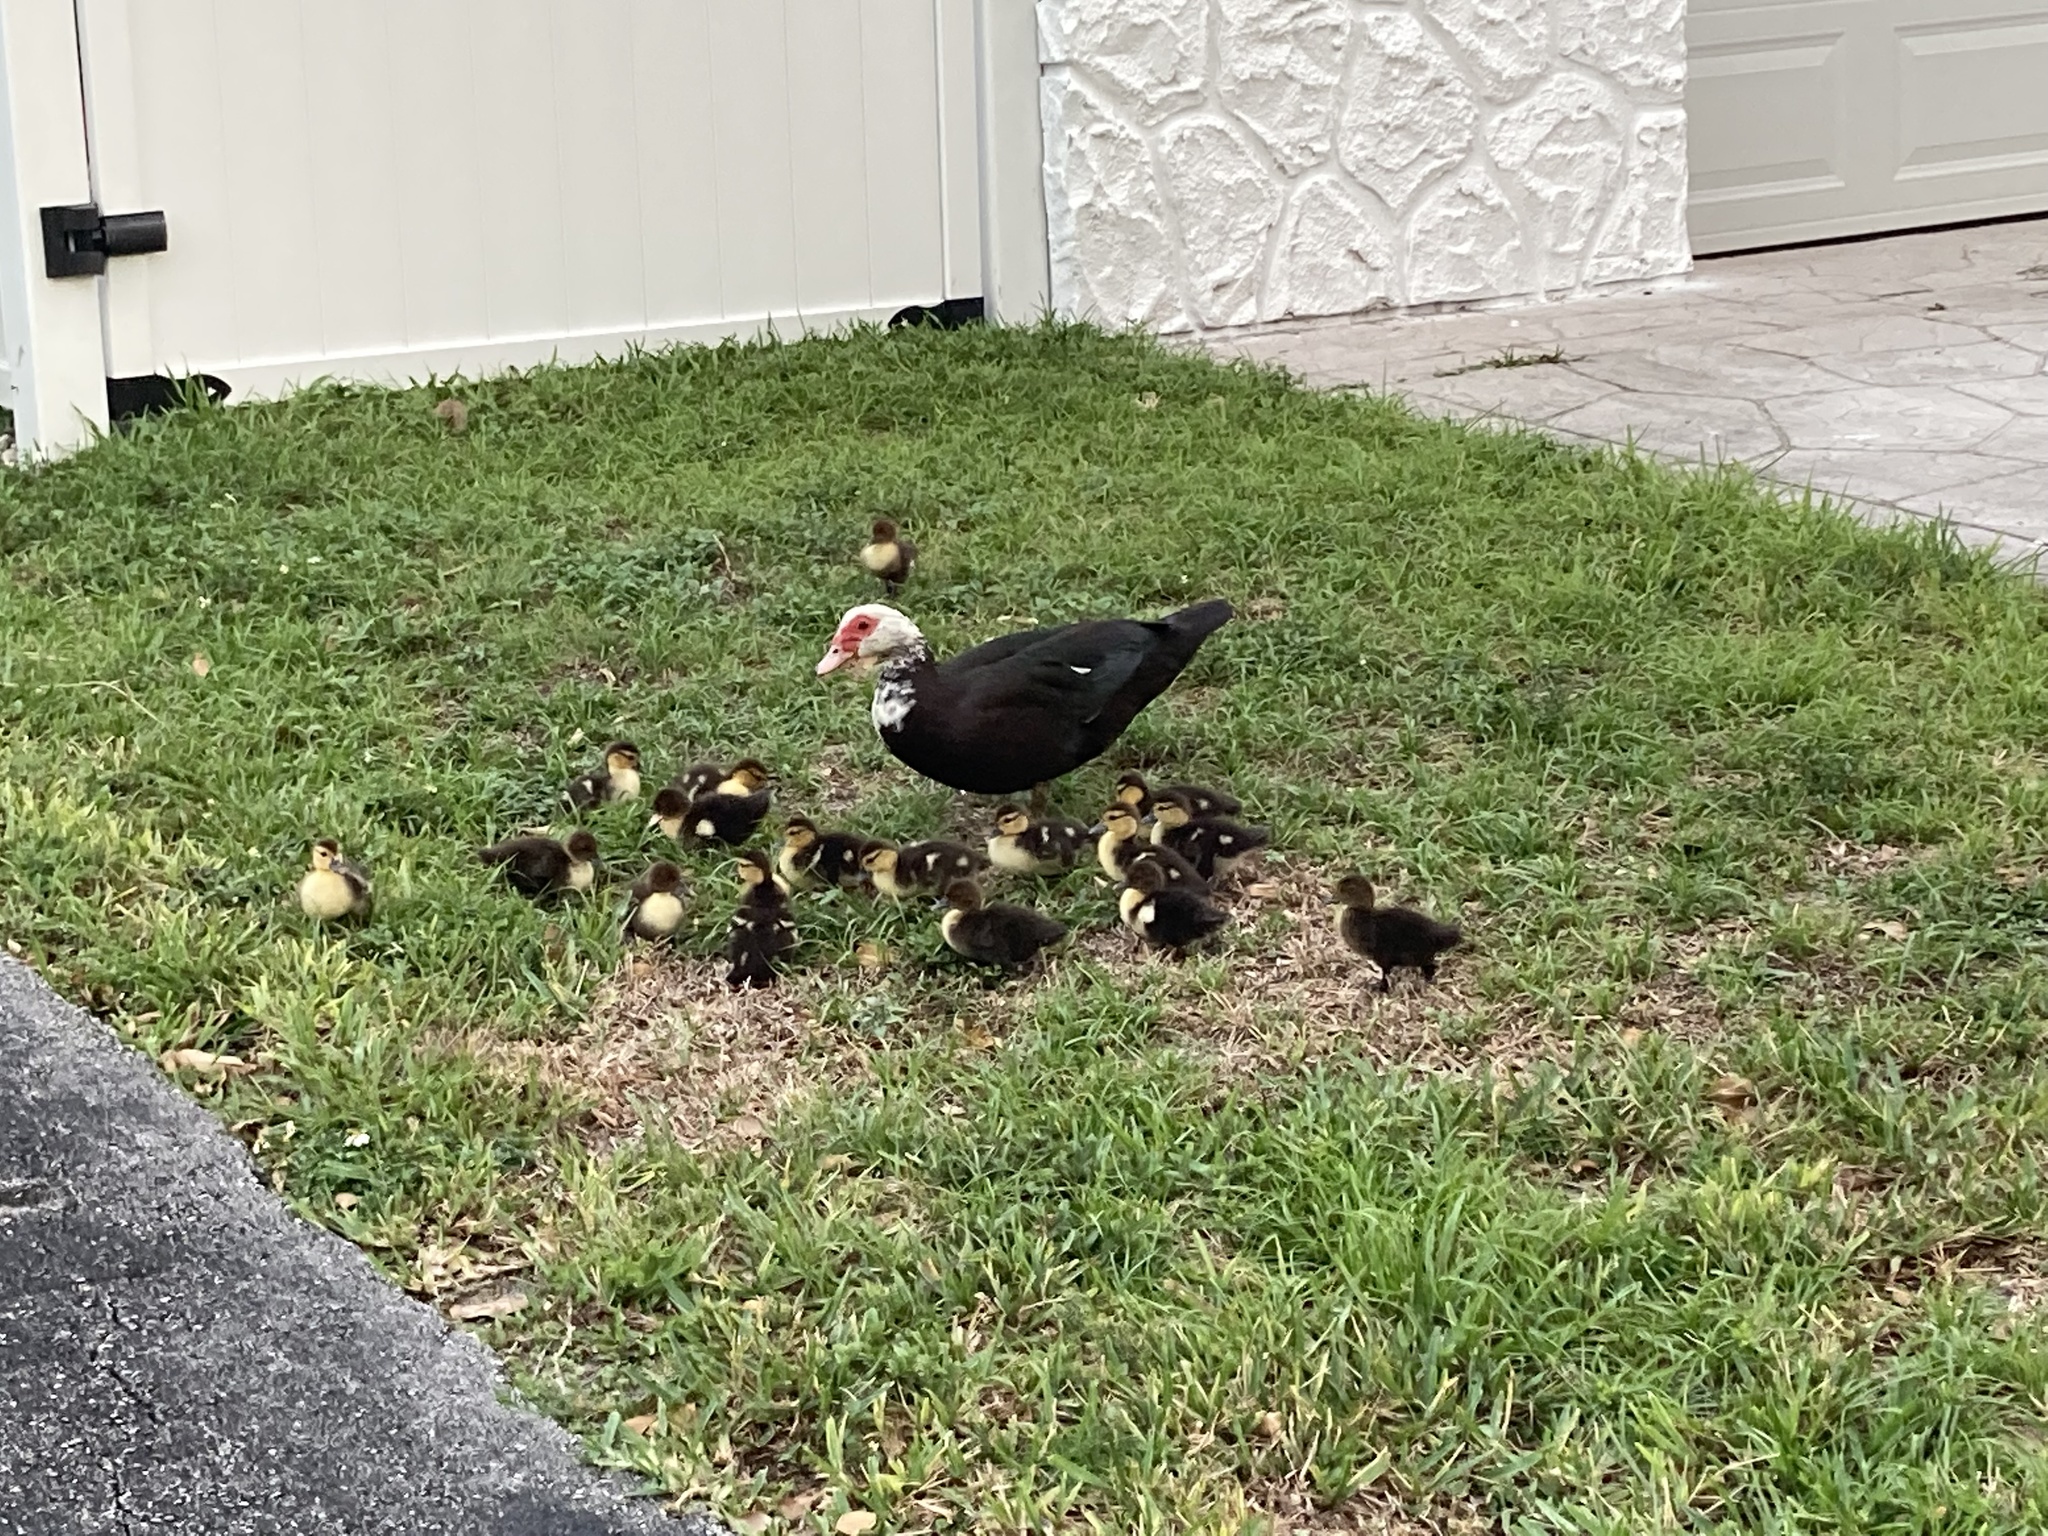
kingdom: Animalia
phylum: Chordata
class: Aves
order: Anseriformes
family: Anatidae
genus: Cairina
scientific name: Cairina moschata
